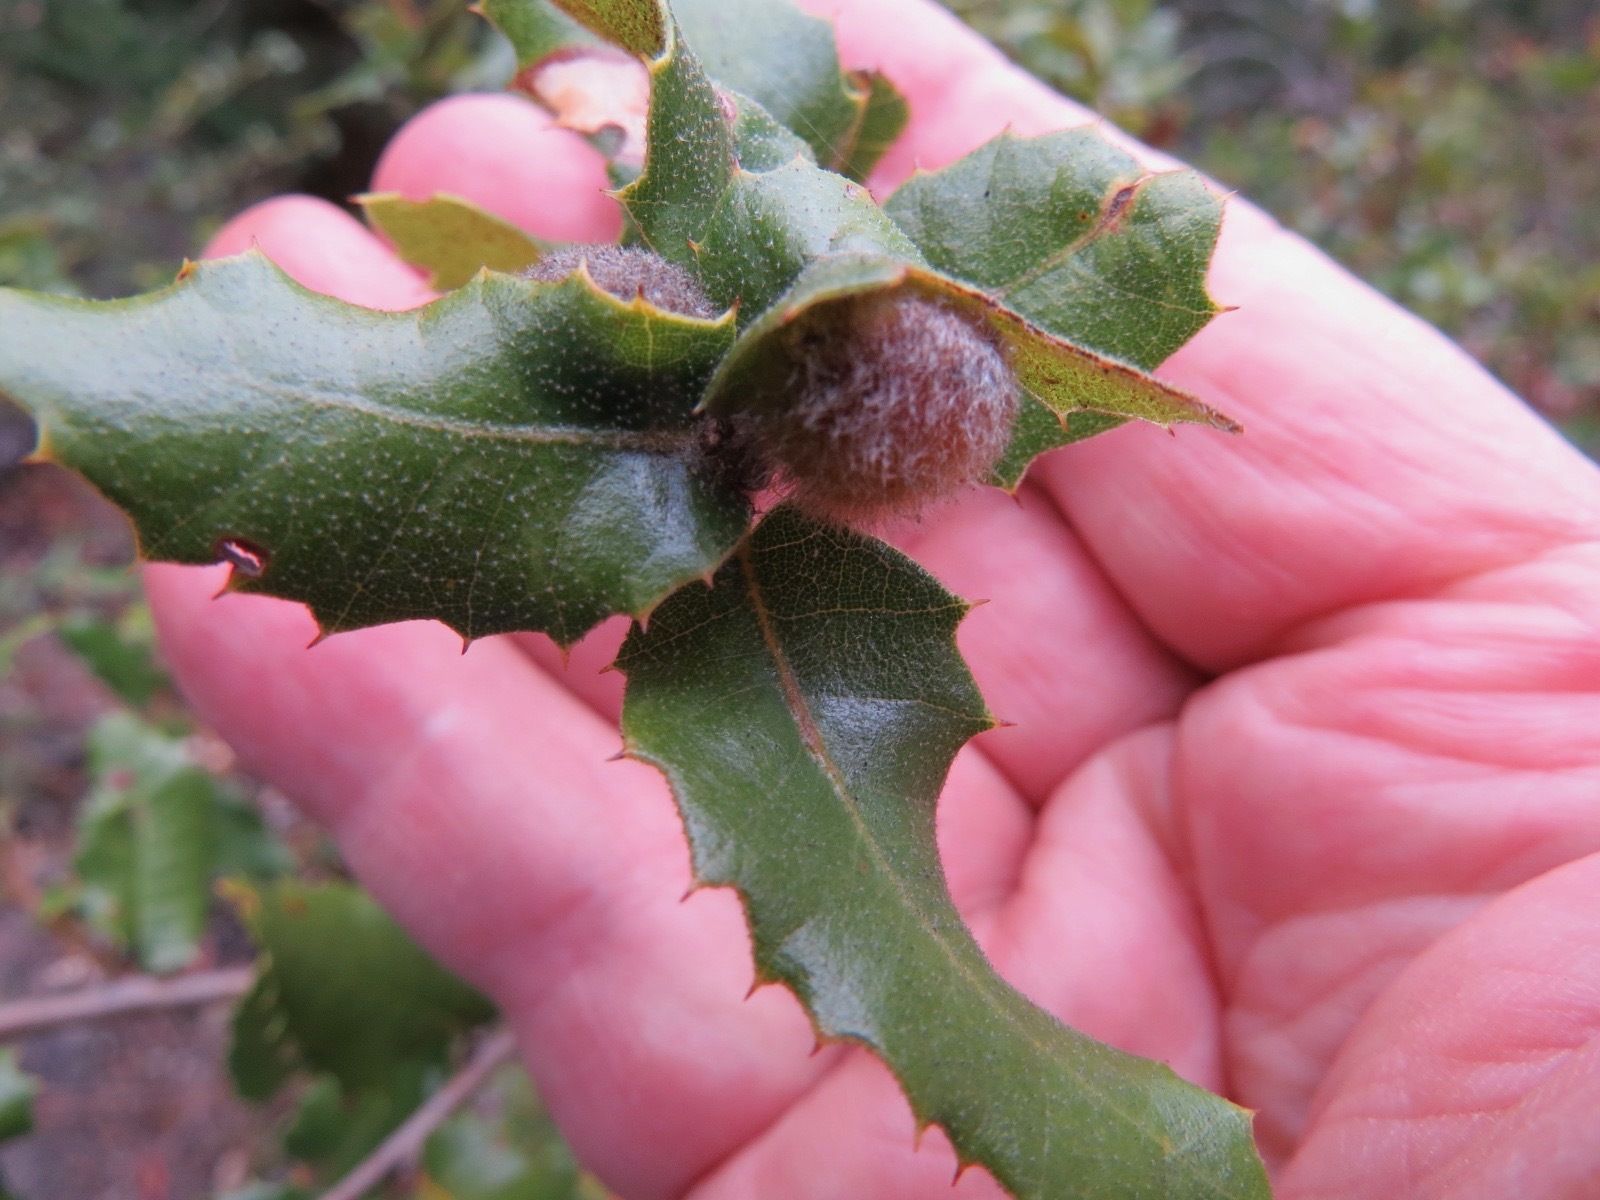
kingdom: Animalia
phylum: Arthropoda
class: Insecta
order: Hymenoptera
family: Cynipidae
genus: Disholandricus
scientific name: Disholandricus
